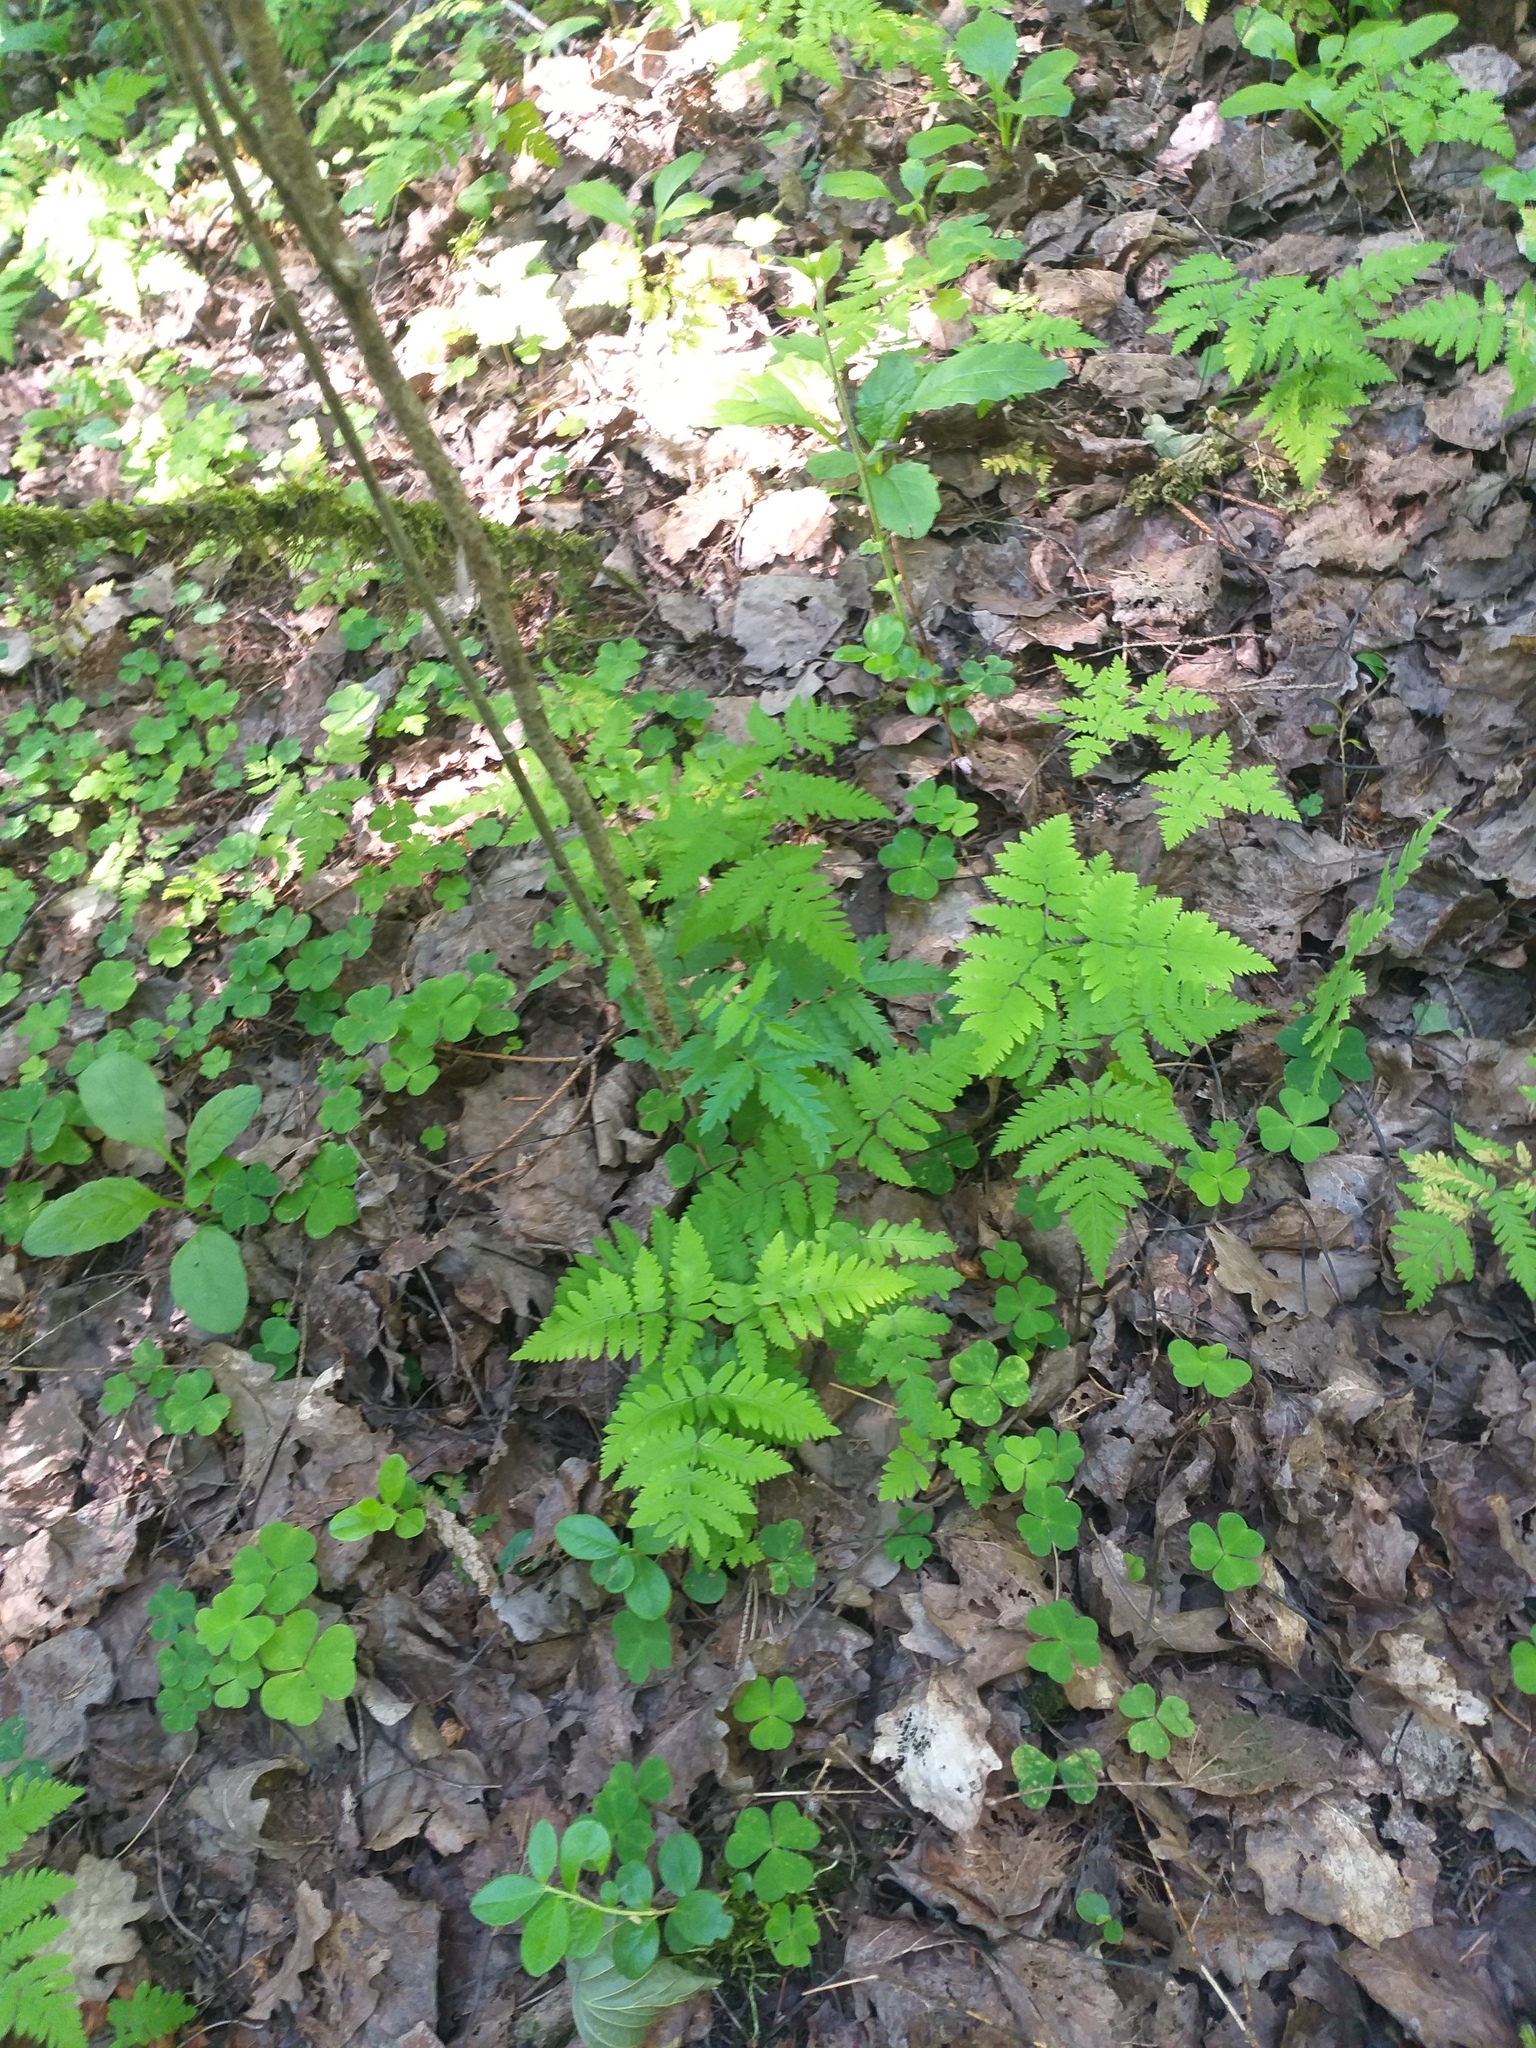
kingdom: Plantae
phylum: Tracheophyta
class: Polypodiopsida
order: Polypodiales
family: Cystopteridaceae
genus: Gymnocarpium
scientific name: Gymnocarpium dryopteris
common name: Oak fern
